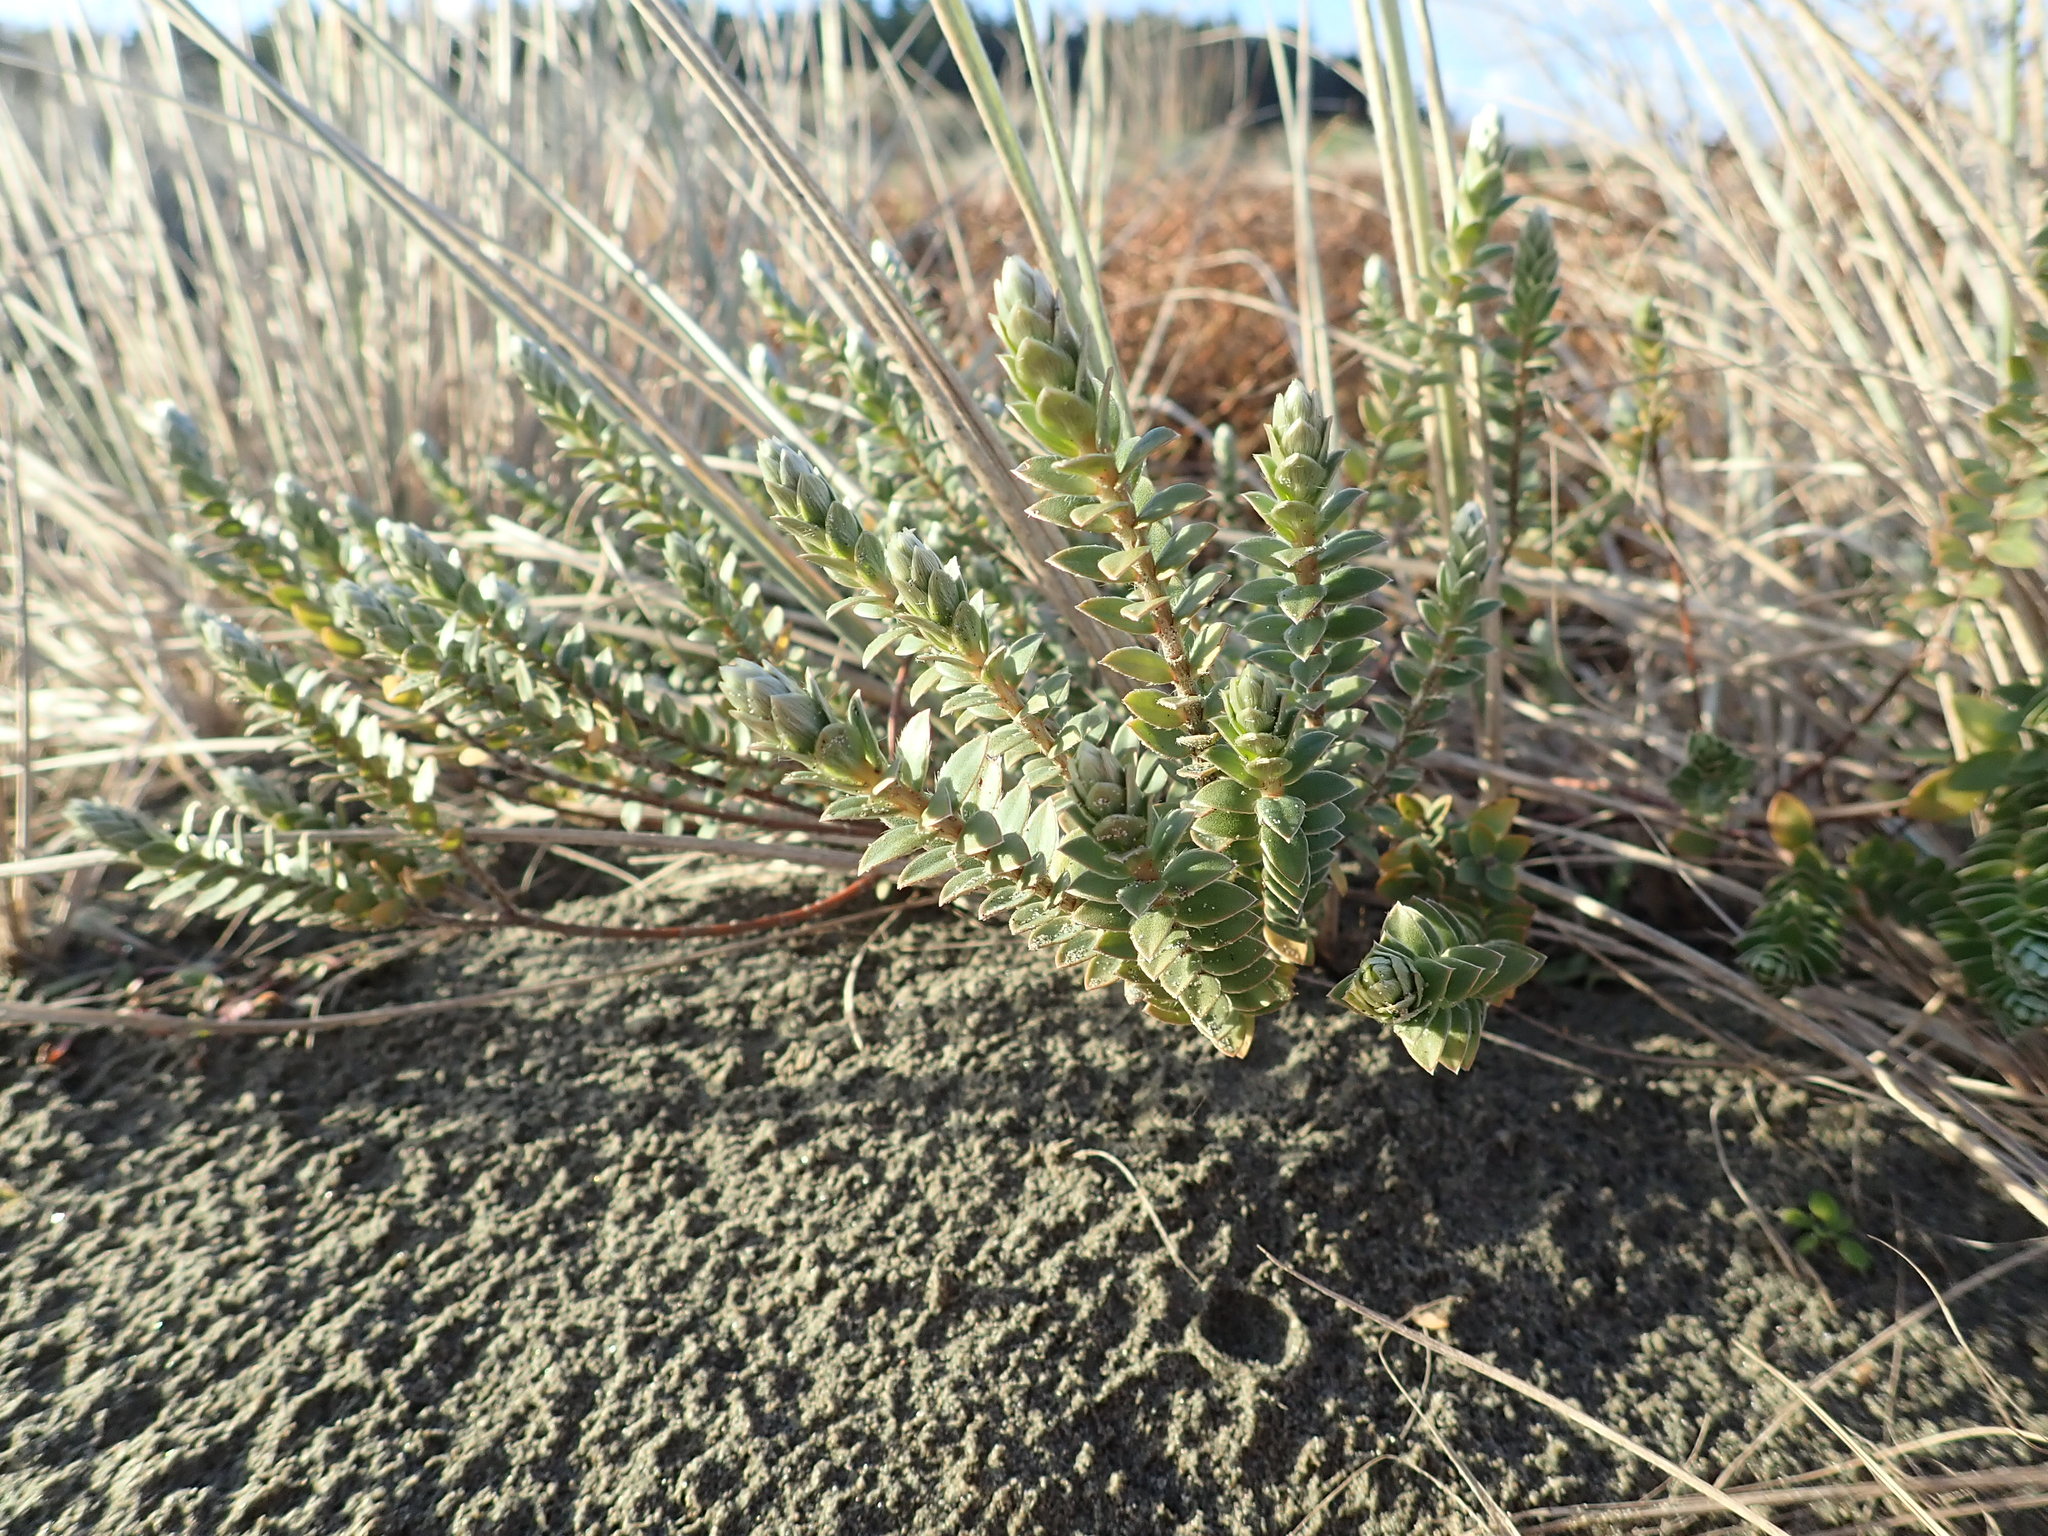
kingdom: Plantae
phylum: Tracheophyta
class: Magnoliopsida
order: Malvales
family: Thymelaeaceae
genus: Pimelea
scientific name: Pimelea villosa
